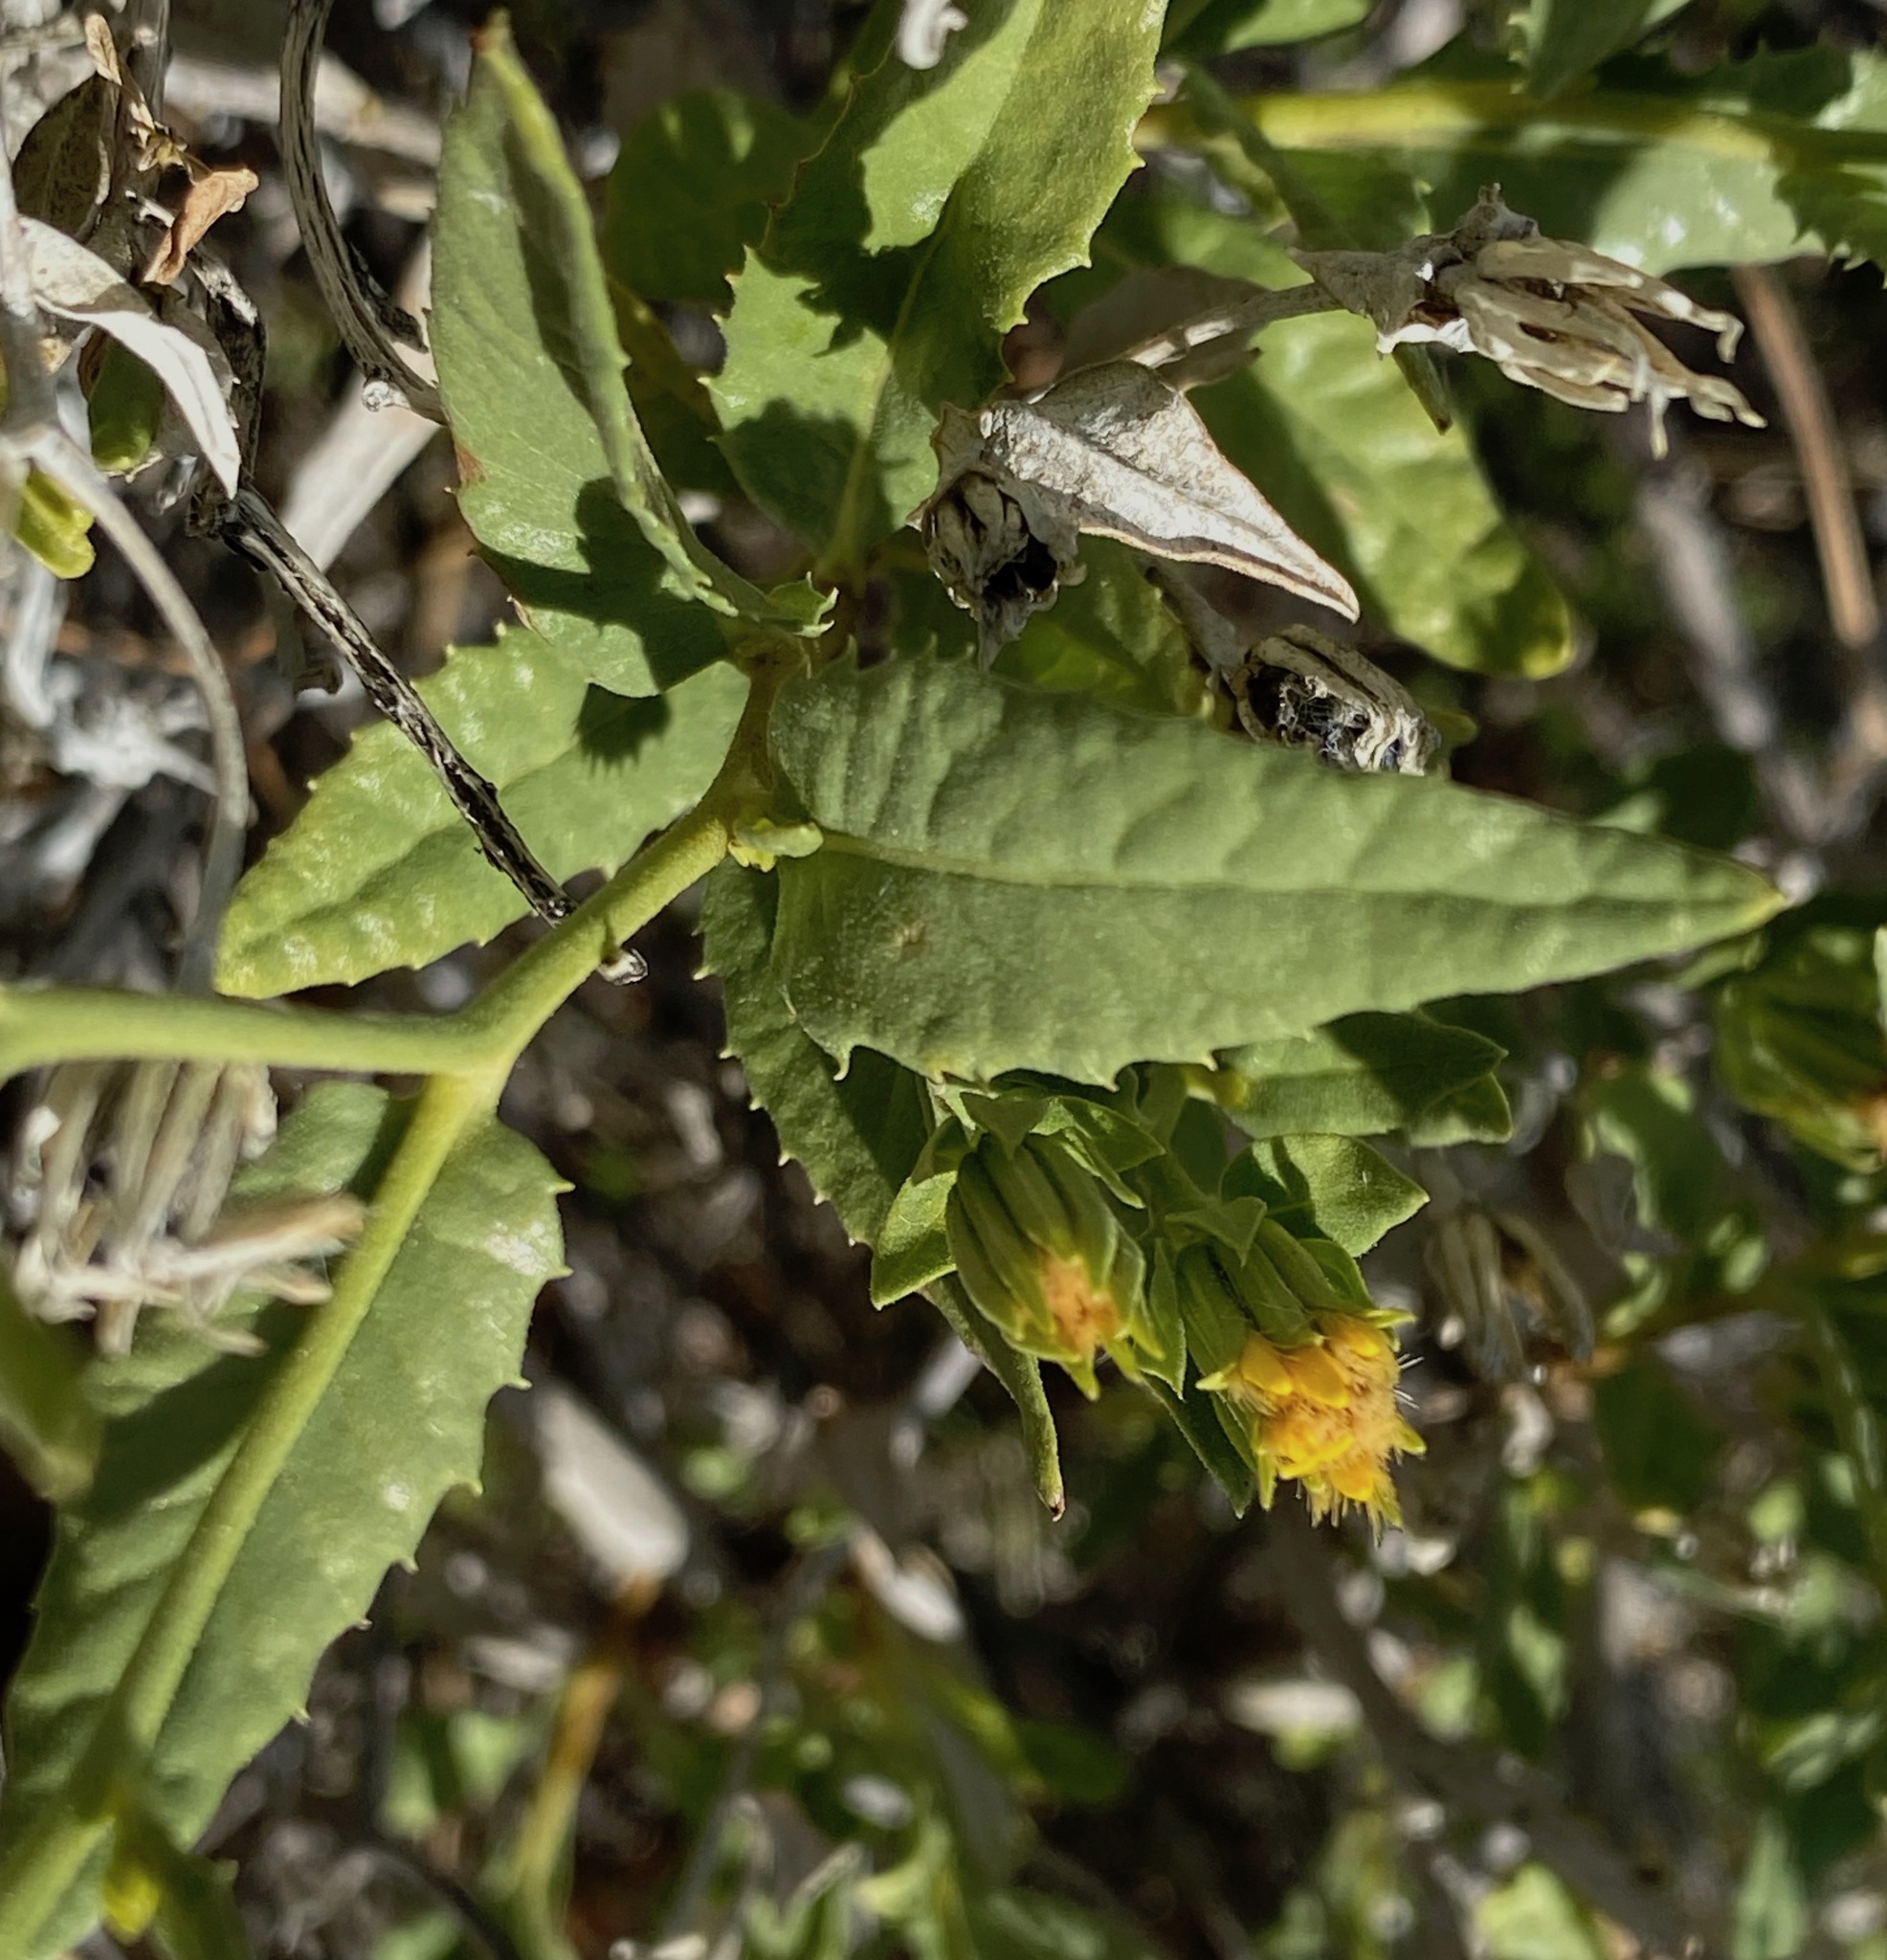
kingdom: Plantae
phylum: Tracheophyta
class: Magnoliopsida
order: Asterales
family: Asteraceae
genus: Trixis
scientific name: Trixis californica
